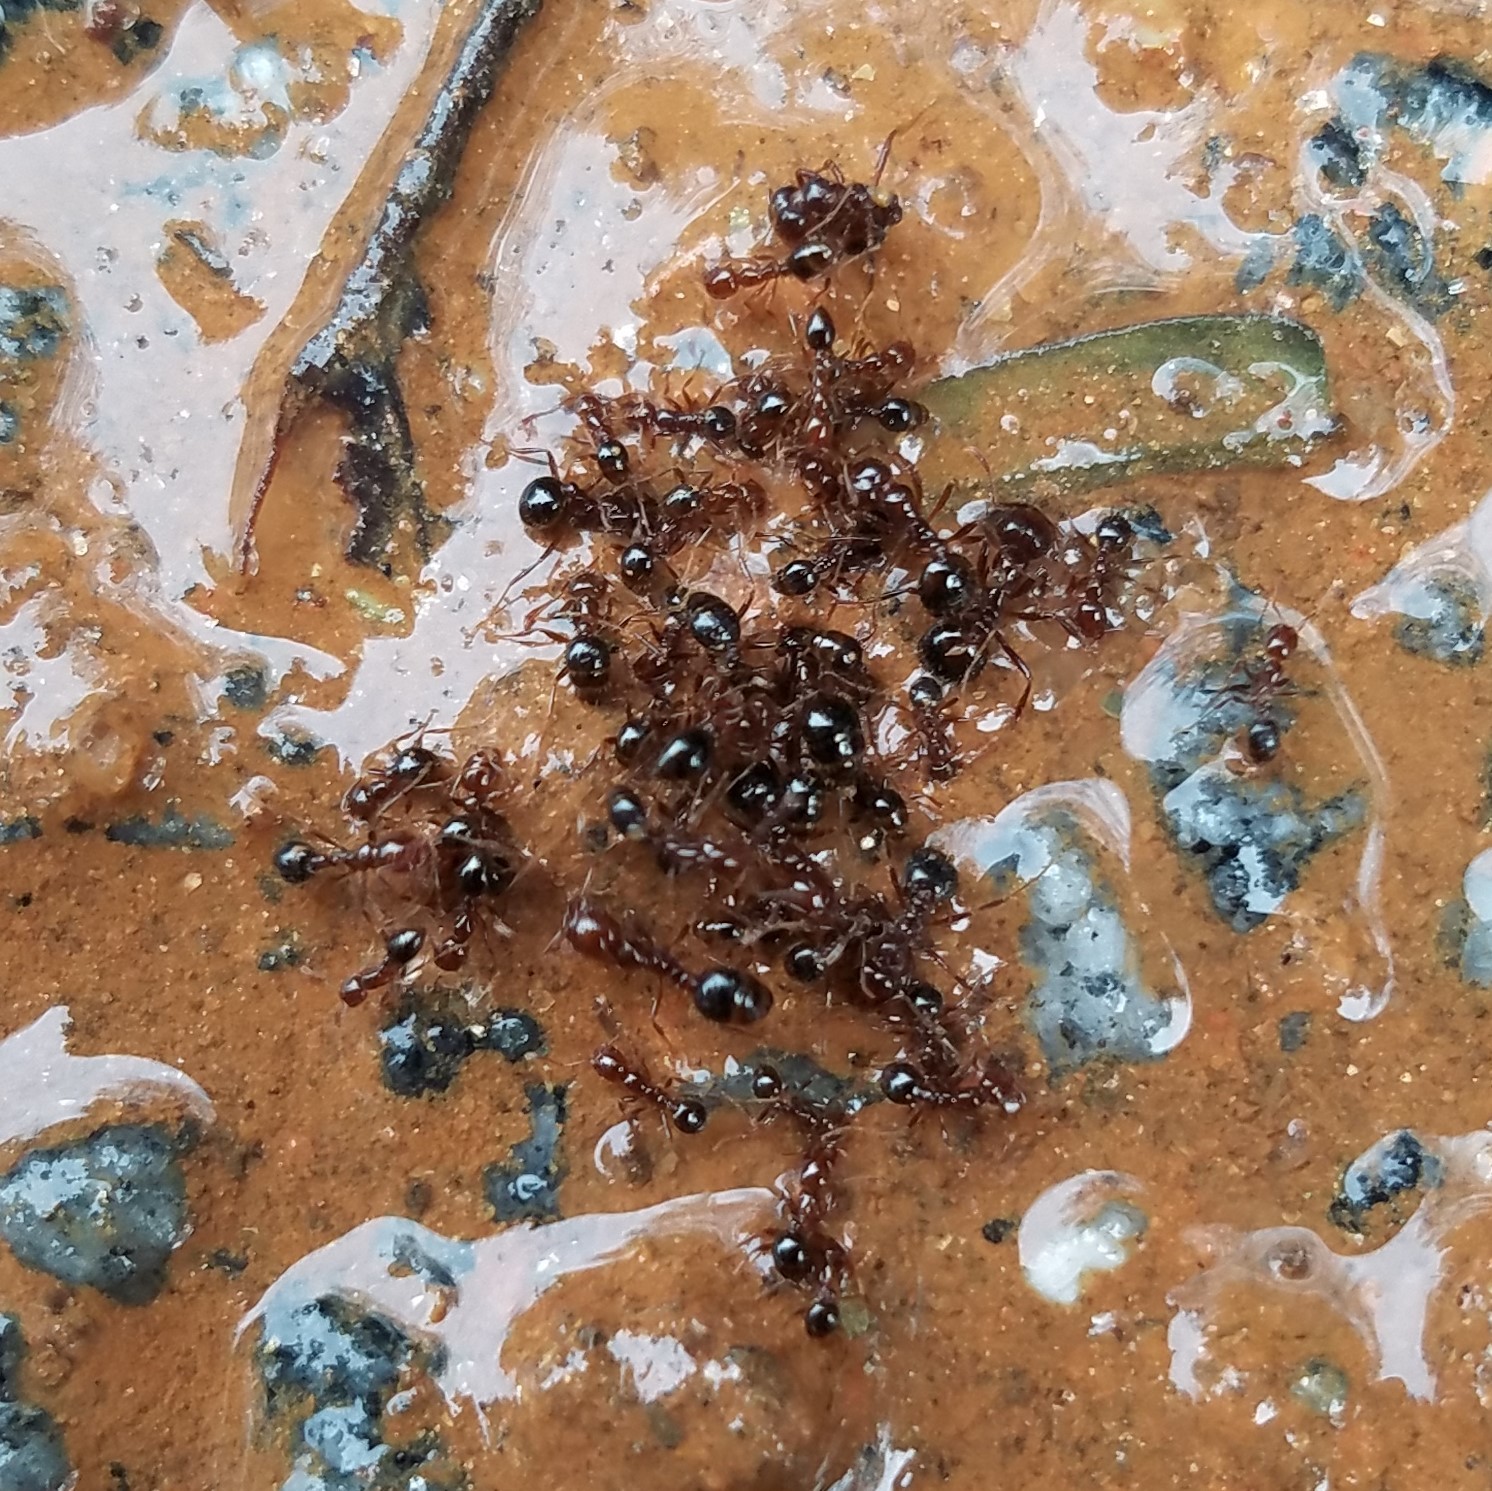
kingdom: Animalia
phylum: Arthropoda
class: Insecta
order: Hymenoptera
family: Formicidae
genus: Solenopsis
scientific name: Solenopsis invicta
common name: Red imported fire ant
